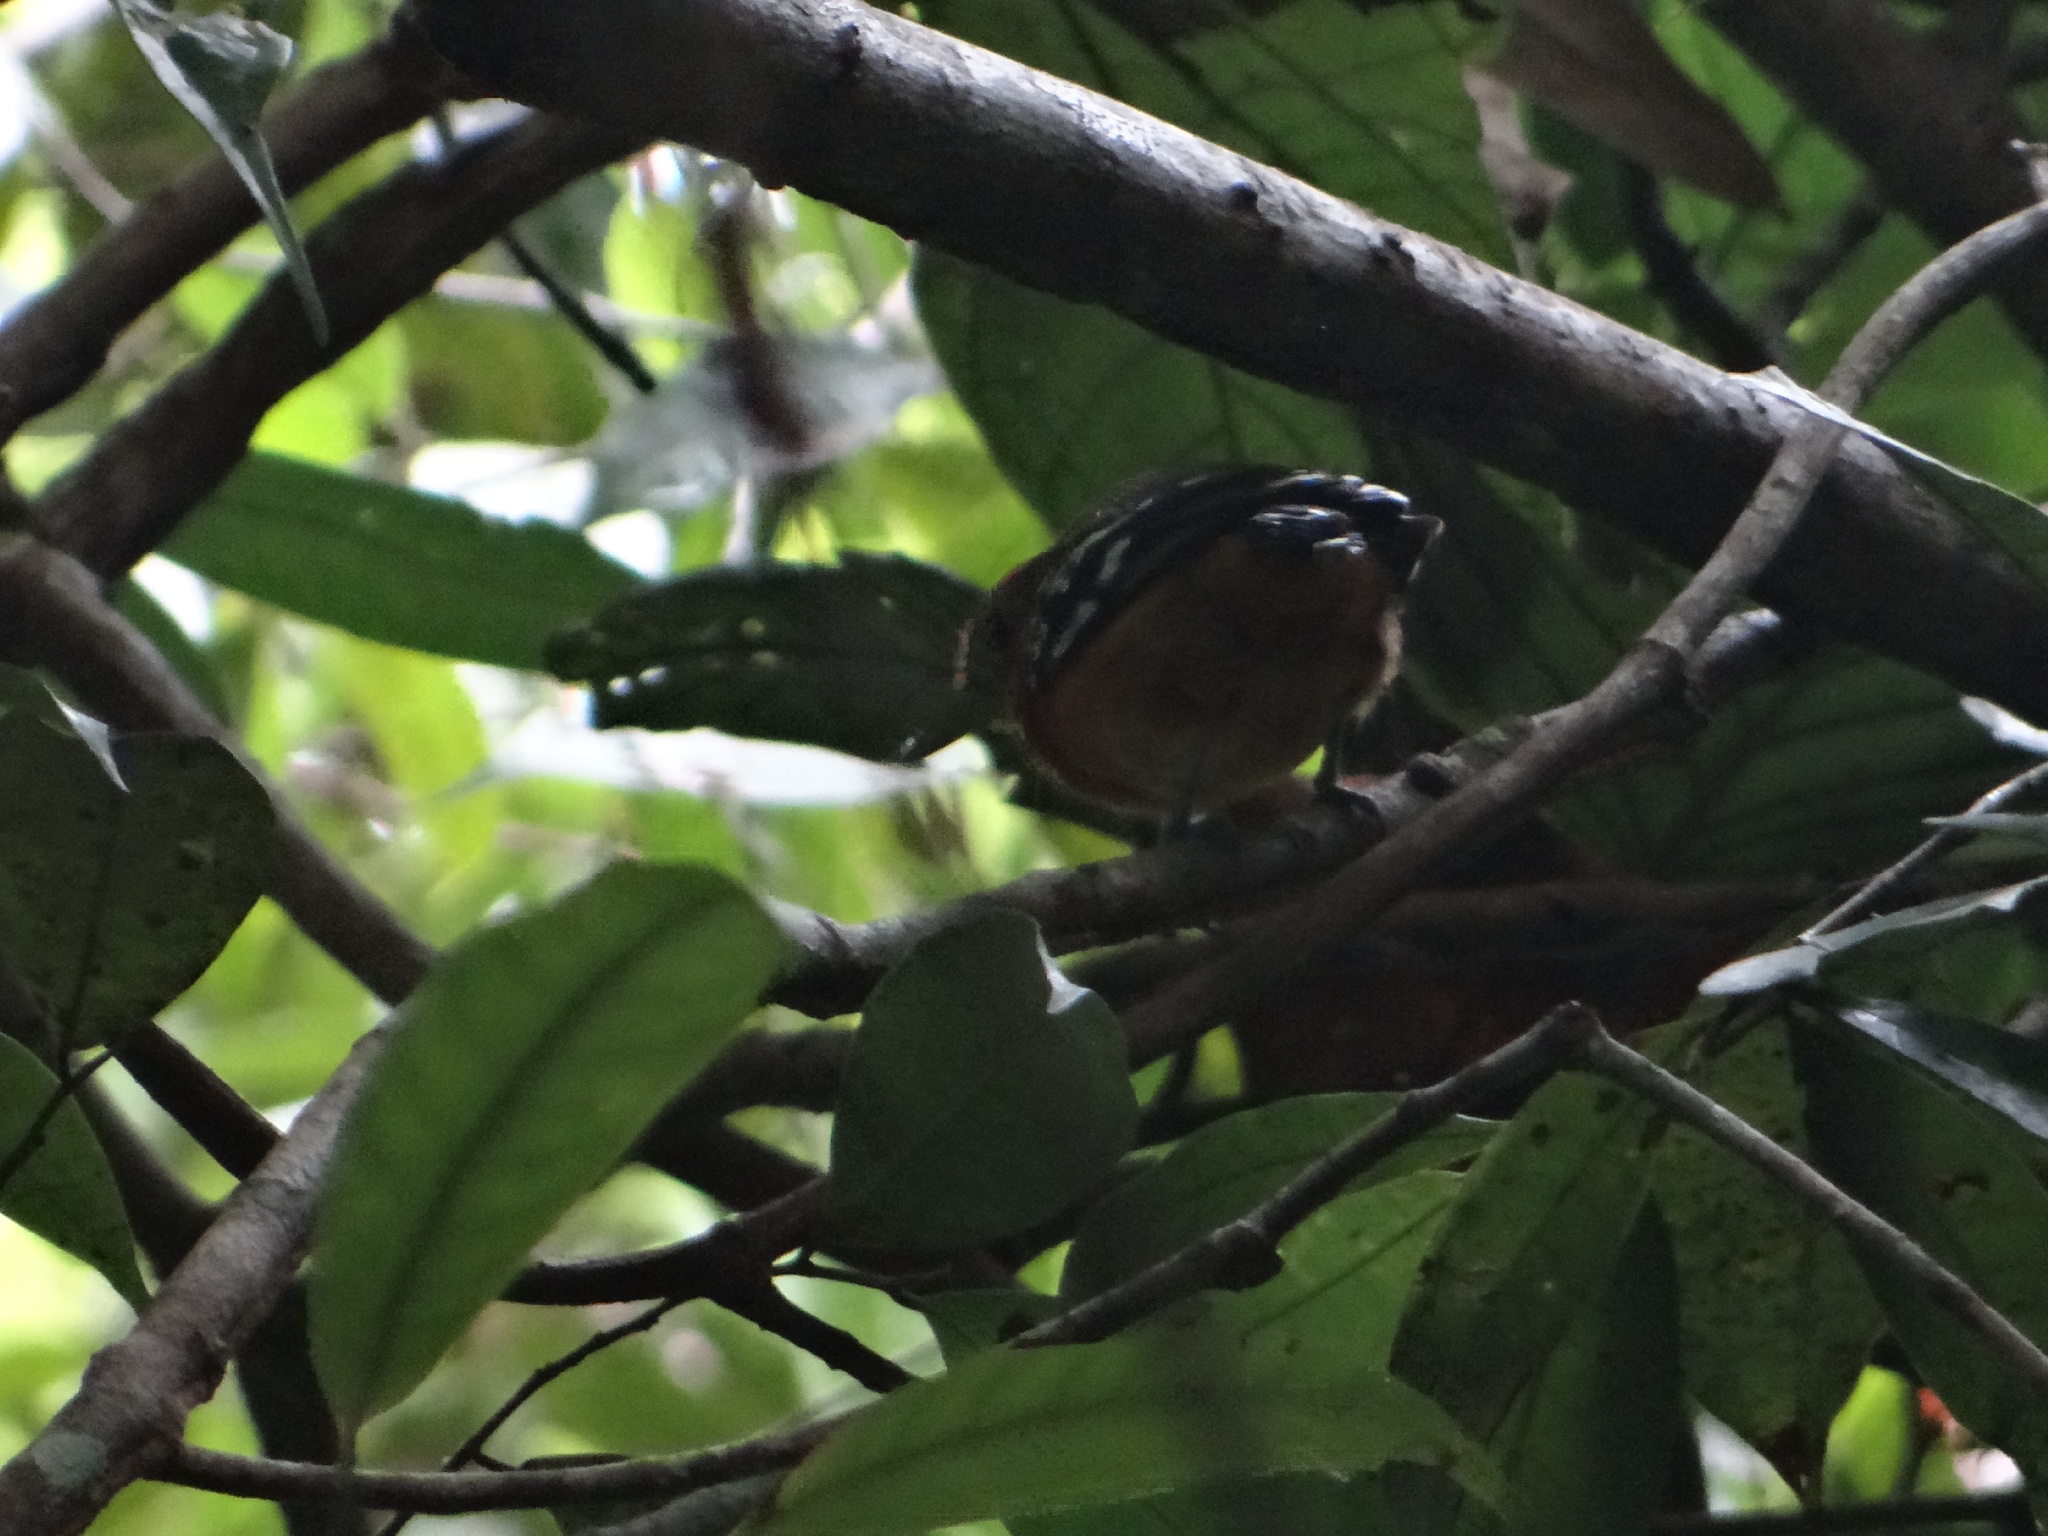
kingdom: Animalia
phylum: Chordata
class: Aves
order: Passeriformes
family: Thamnophilidae
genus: Thamnophilus
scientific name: Thamnophilus amazonicus
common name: Amazonian antshrike
